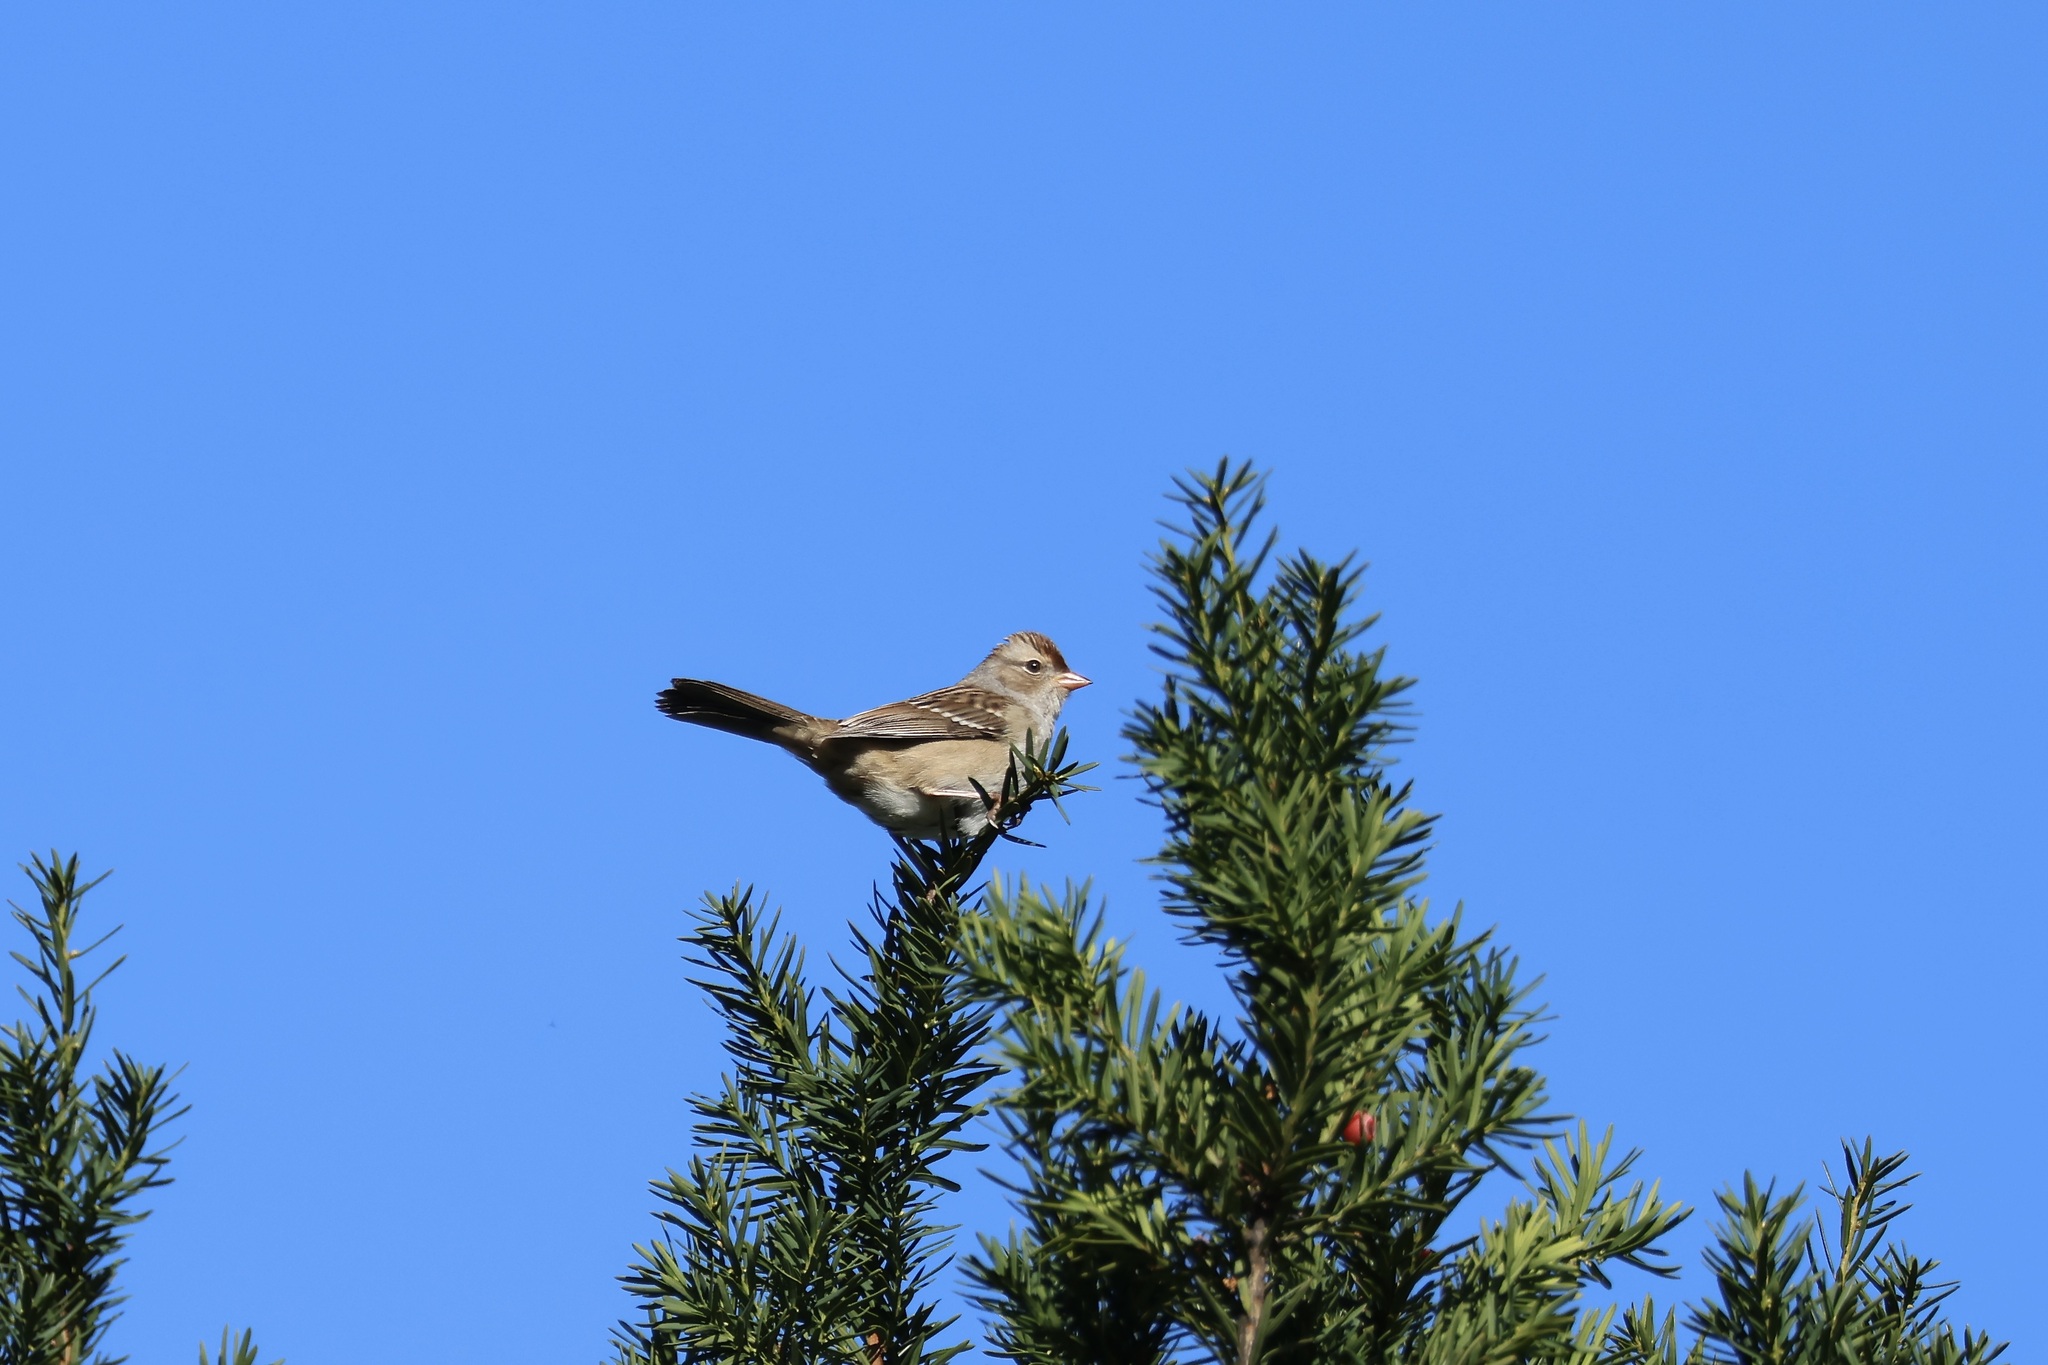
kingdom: Animalia
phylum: Chordata
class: Aves
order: Passeriformes
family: Passerellidae
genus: Zonotrichia
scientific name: Zonotrichia leucophrys
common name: White-crowned sparrow
